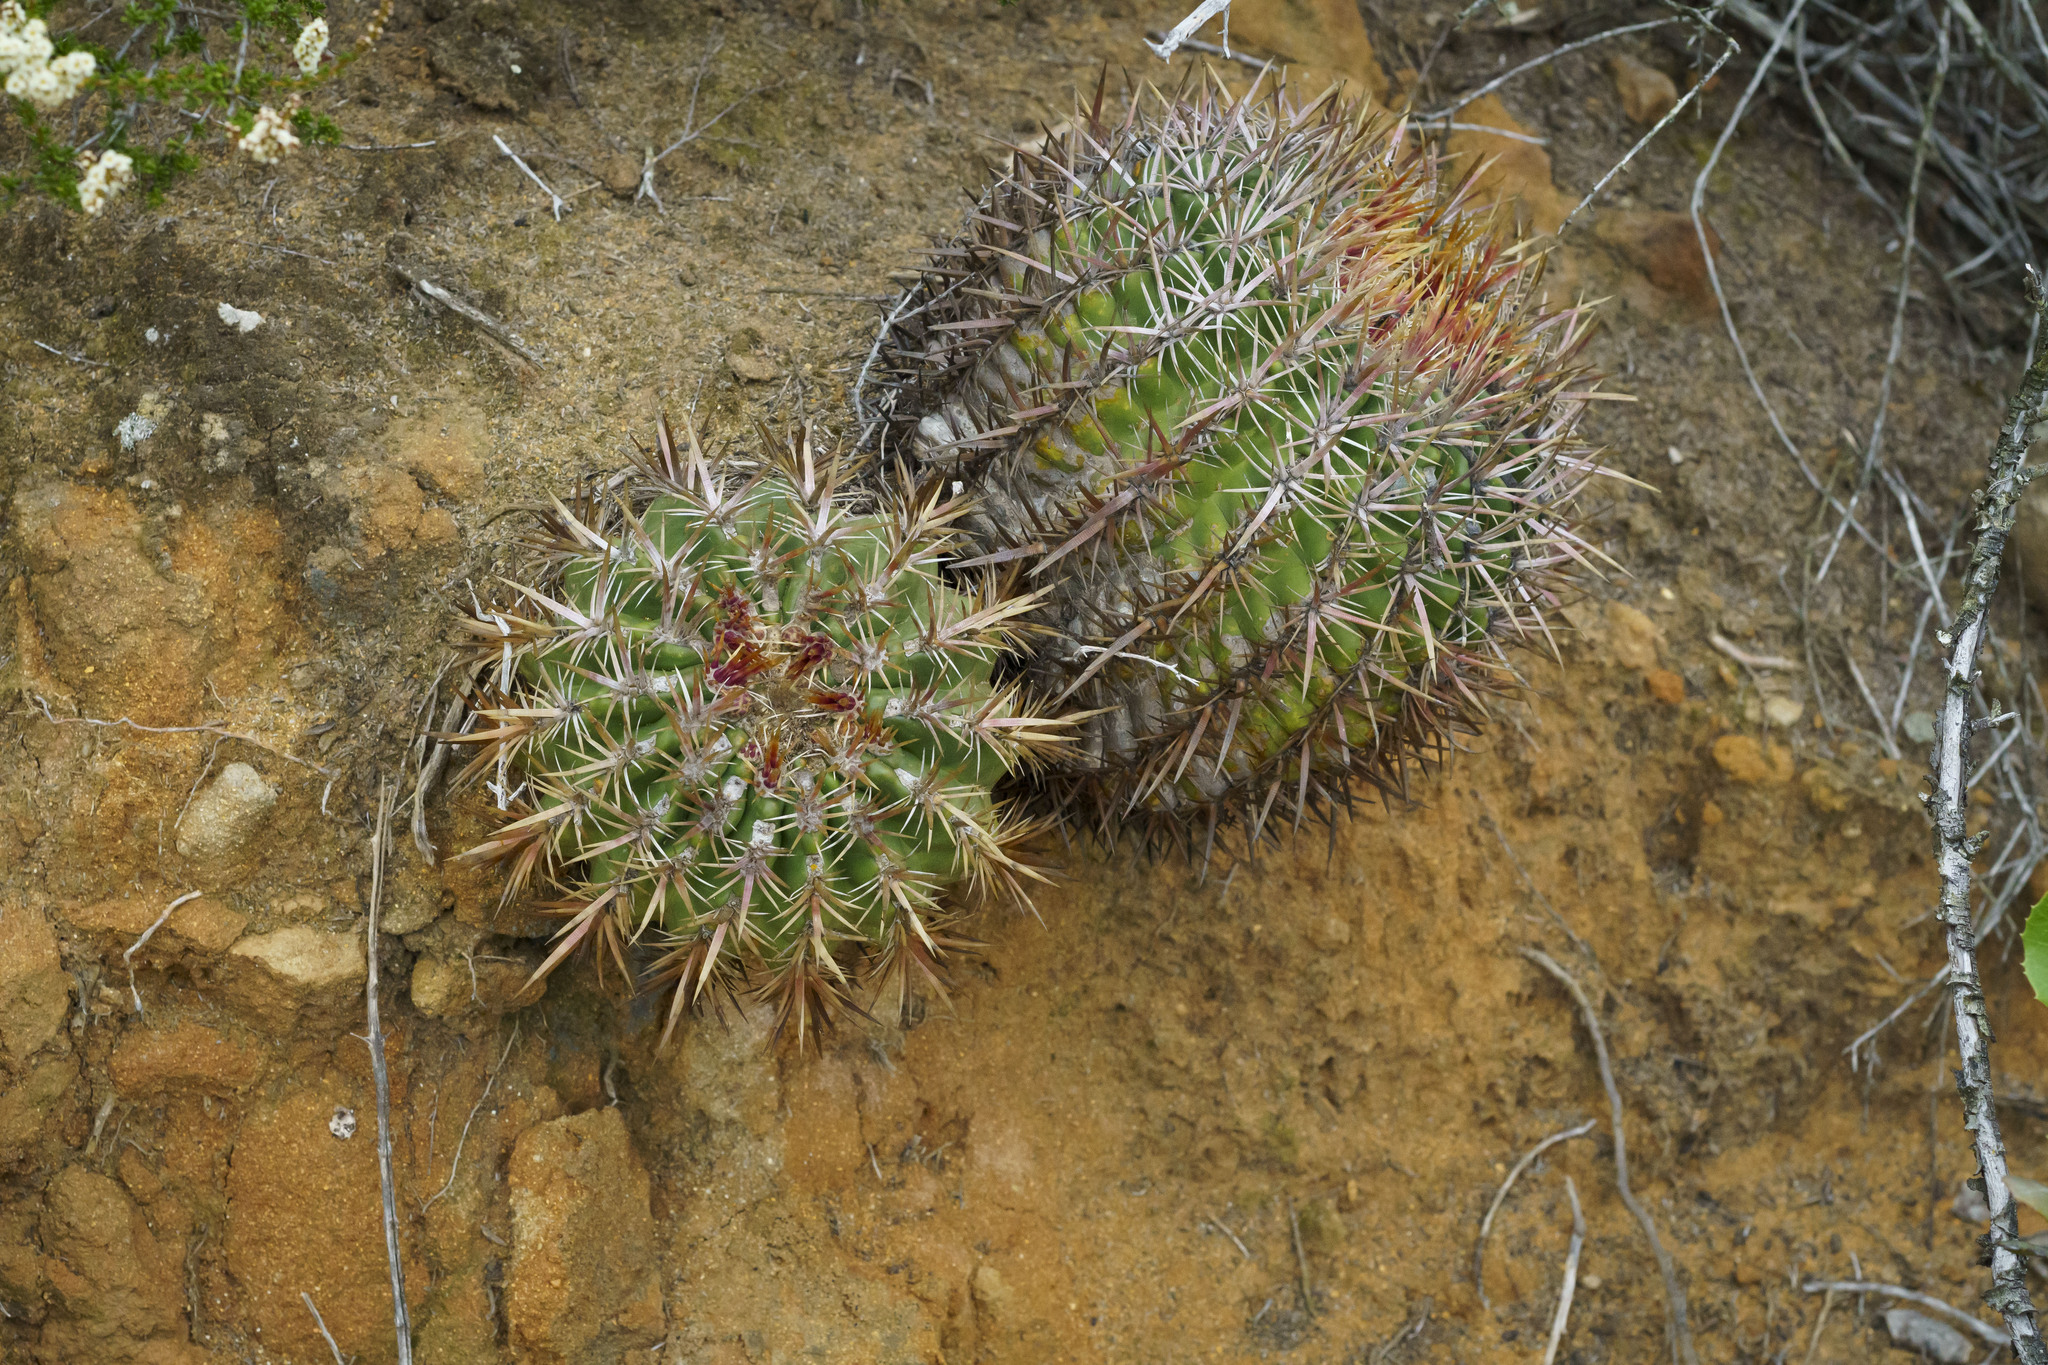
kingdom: Plantae
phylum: Tracheophyta
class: Magnoliopsida
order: Caryophyllales
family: Cactaceae
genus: Ferocactus
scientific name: Ferocactus viridescens
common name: San diego barrel cactus
